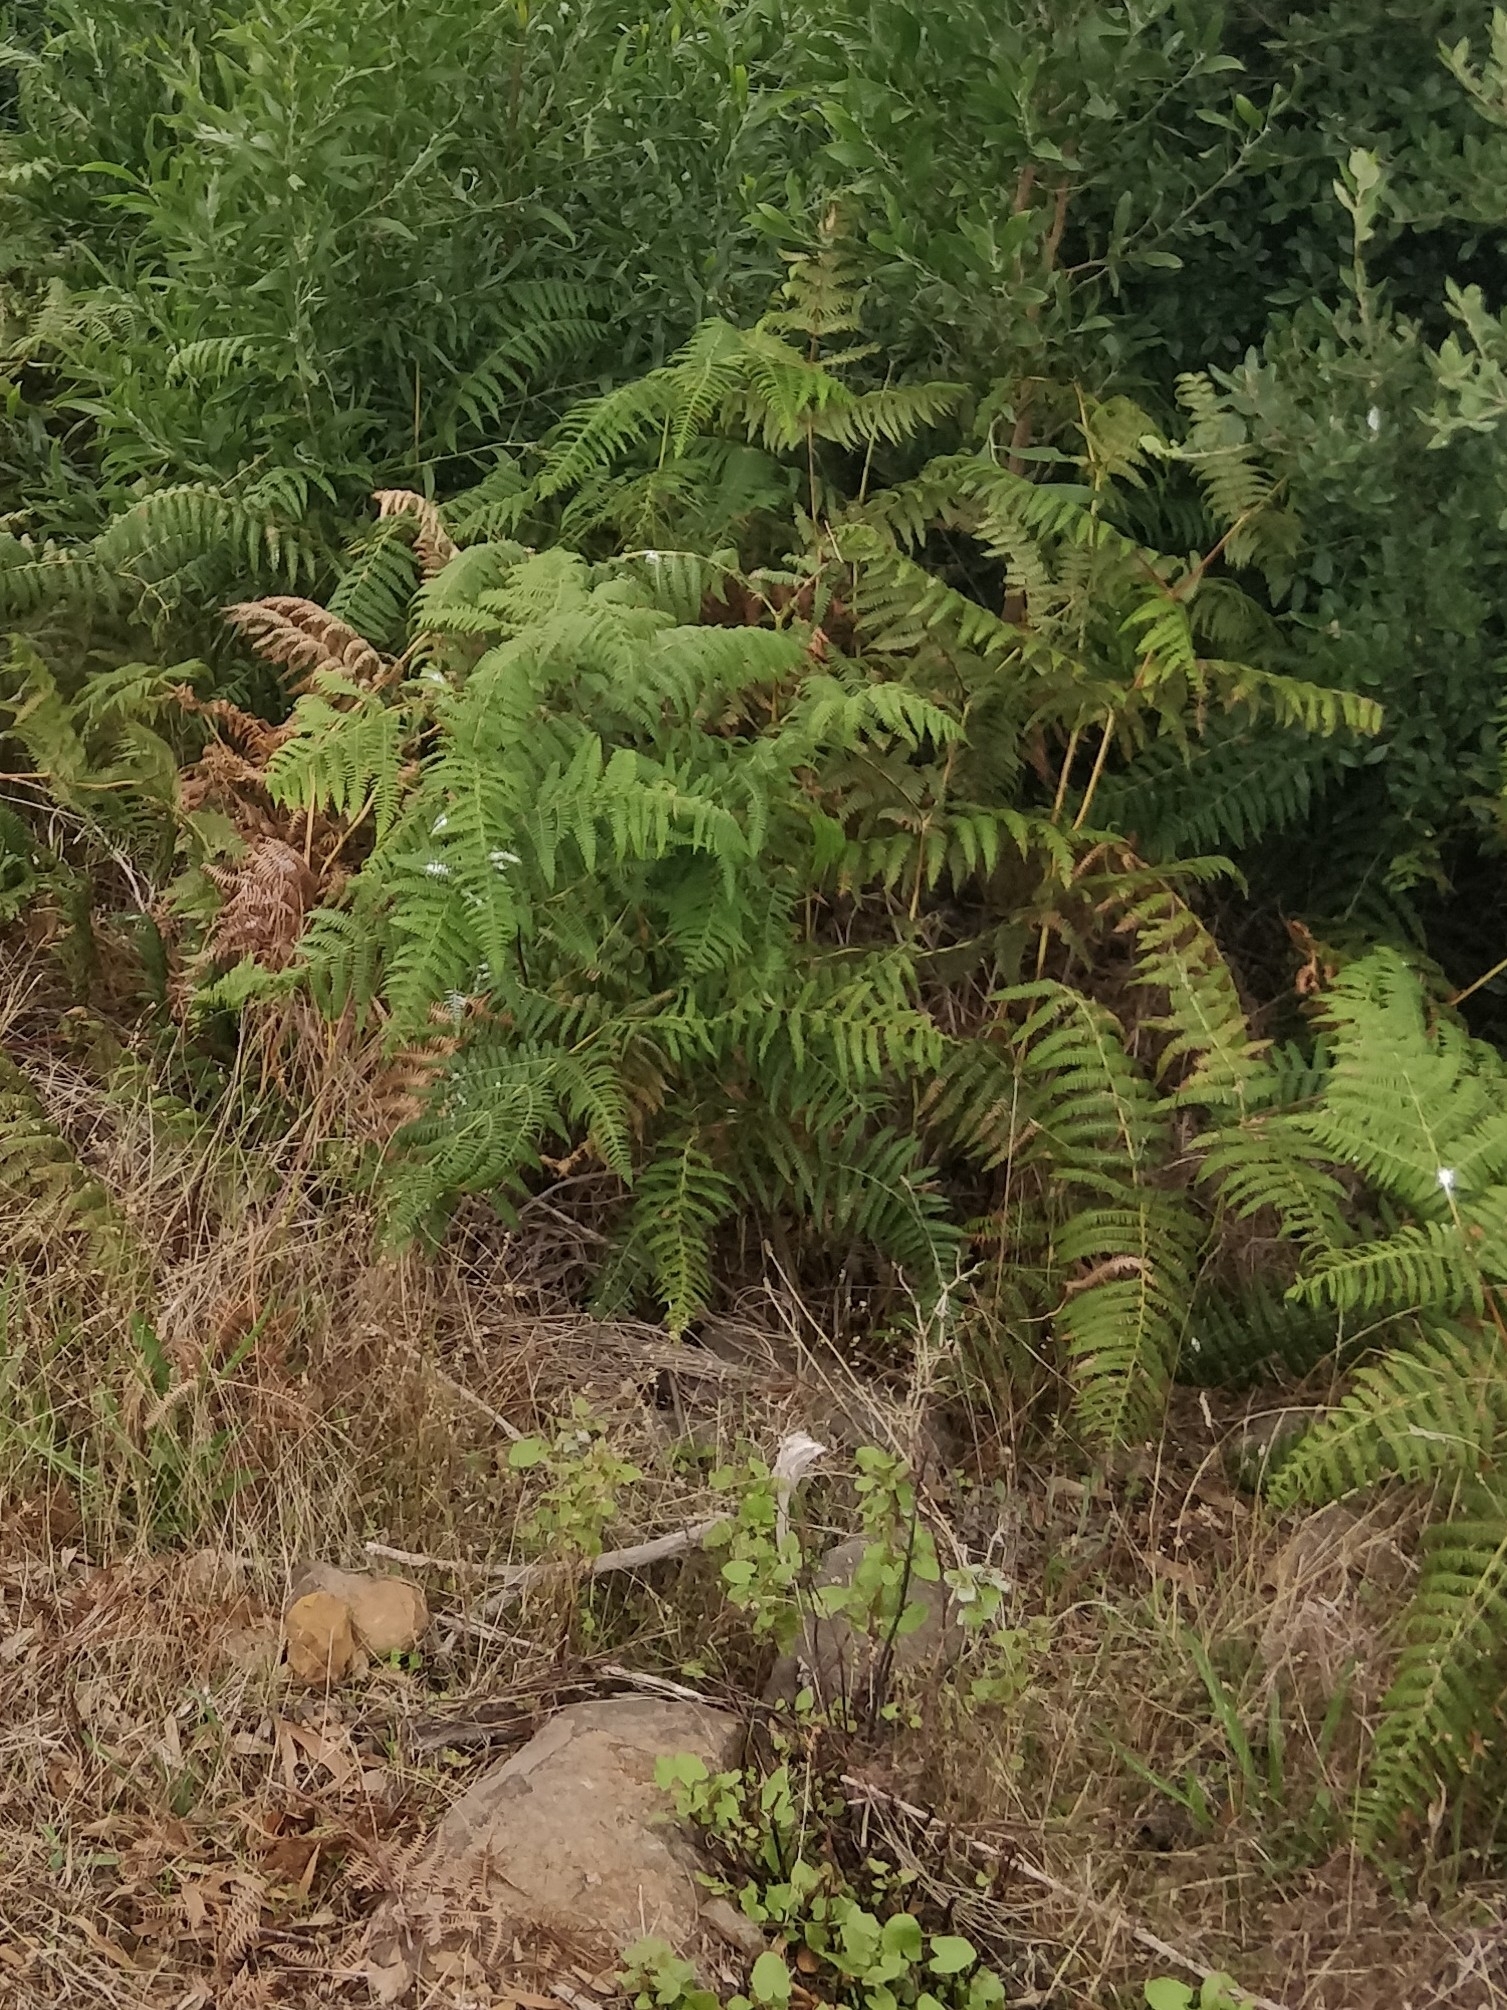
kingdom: Plantae
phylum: Tracheophyta
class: Polypodiopsida
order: Polypodiales
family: Dennstaedtiaceae
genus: Pteridium
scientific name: Pteridium aquilinum
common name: Bracken
